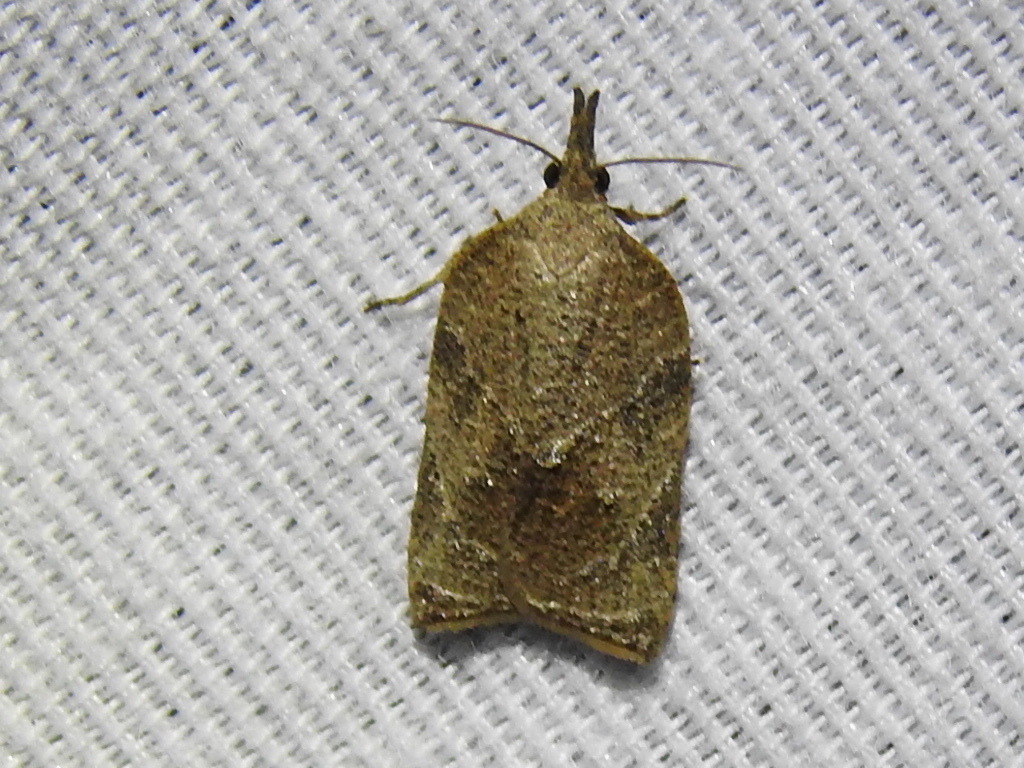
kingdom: Animalia
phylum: Arthropoda
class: Insecta
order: Lepidoptera
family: Tortricidae
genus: Platynota
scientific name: Platynota rostrana
